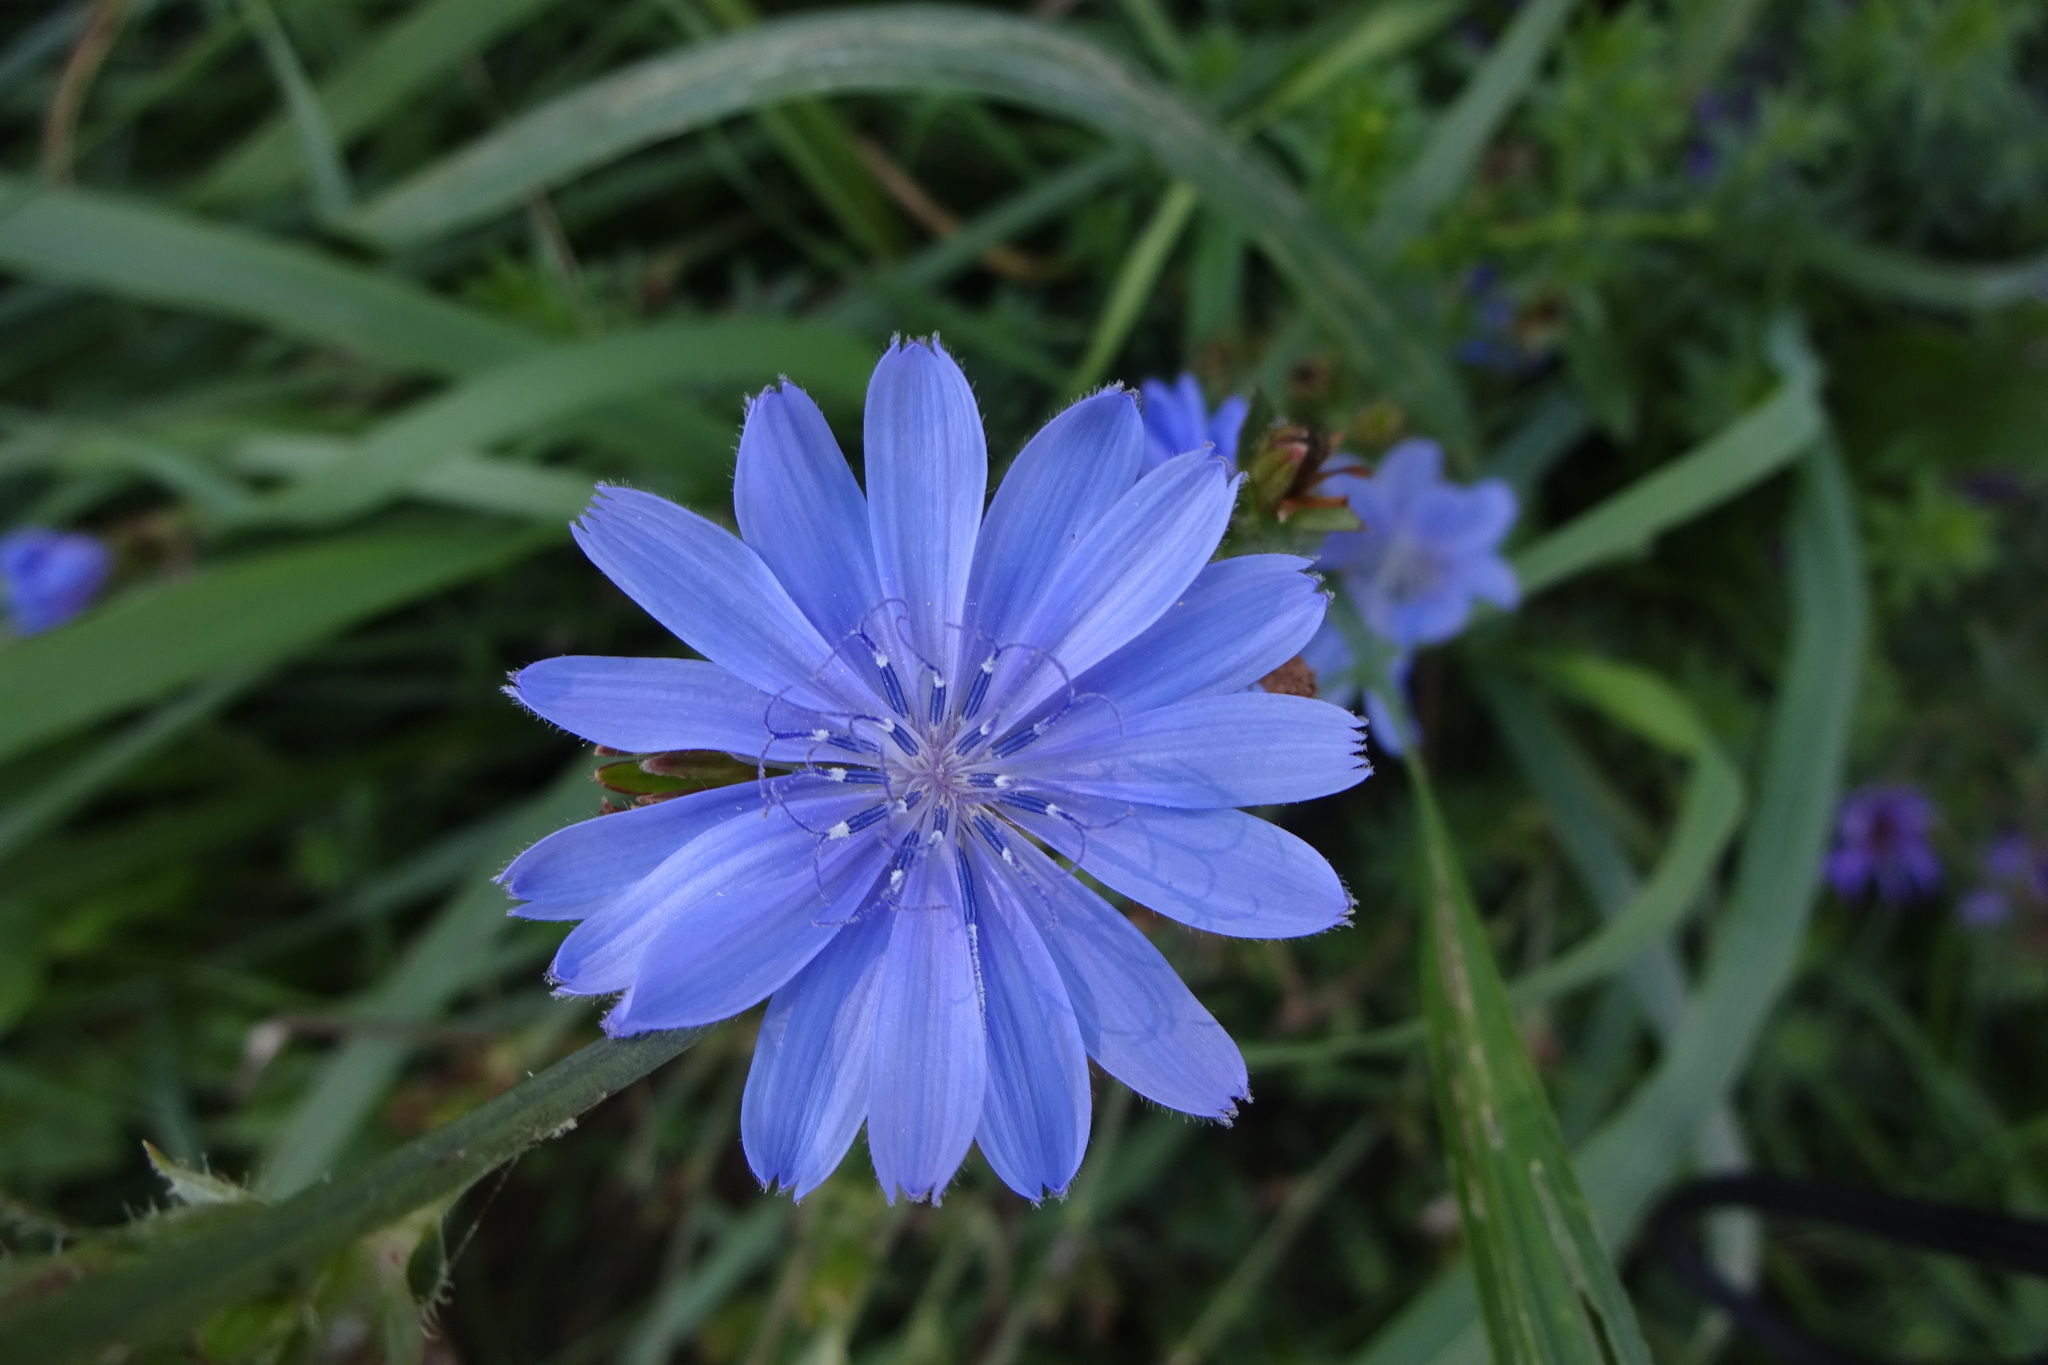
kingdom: Plantae
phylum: Tracheophyta
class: Magnoliopsida
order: Asterales
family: Asteraceae
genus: Cichorium
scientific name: Cichorium intybus
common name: Chicory
